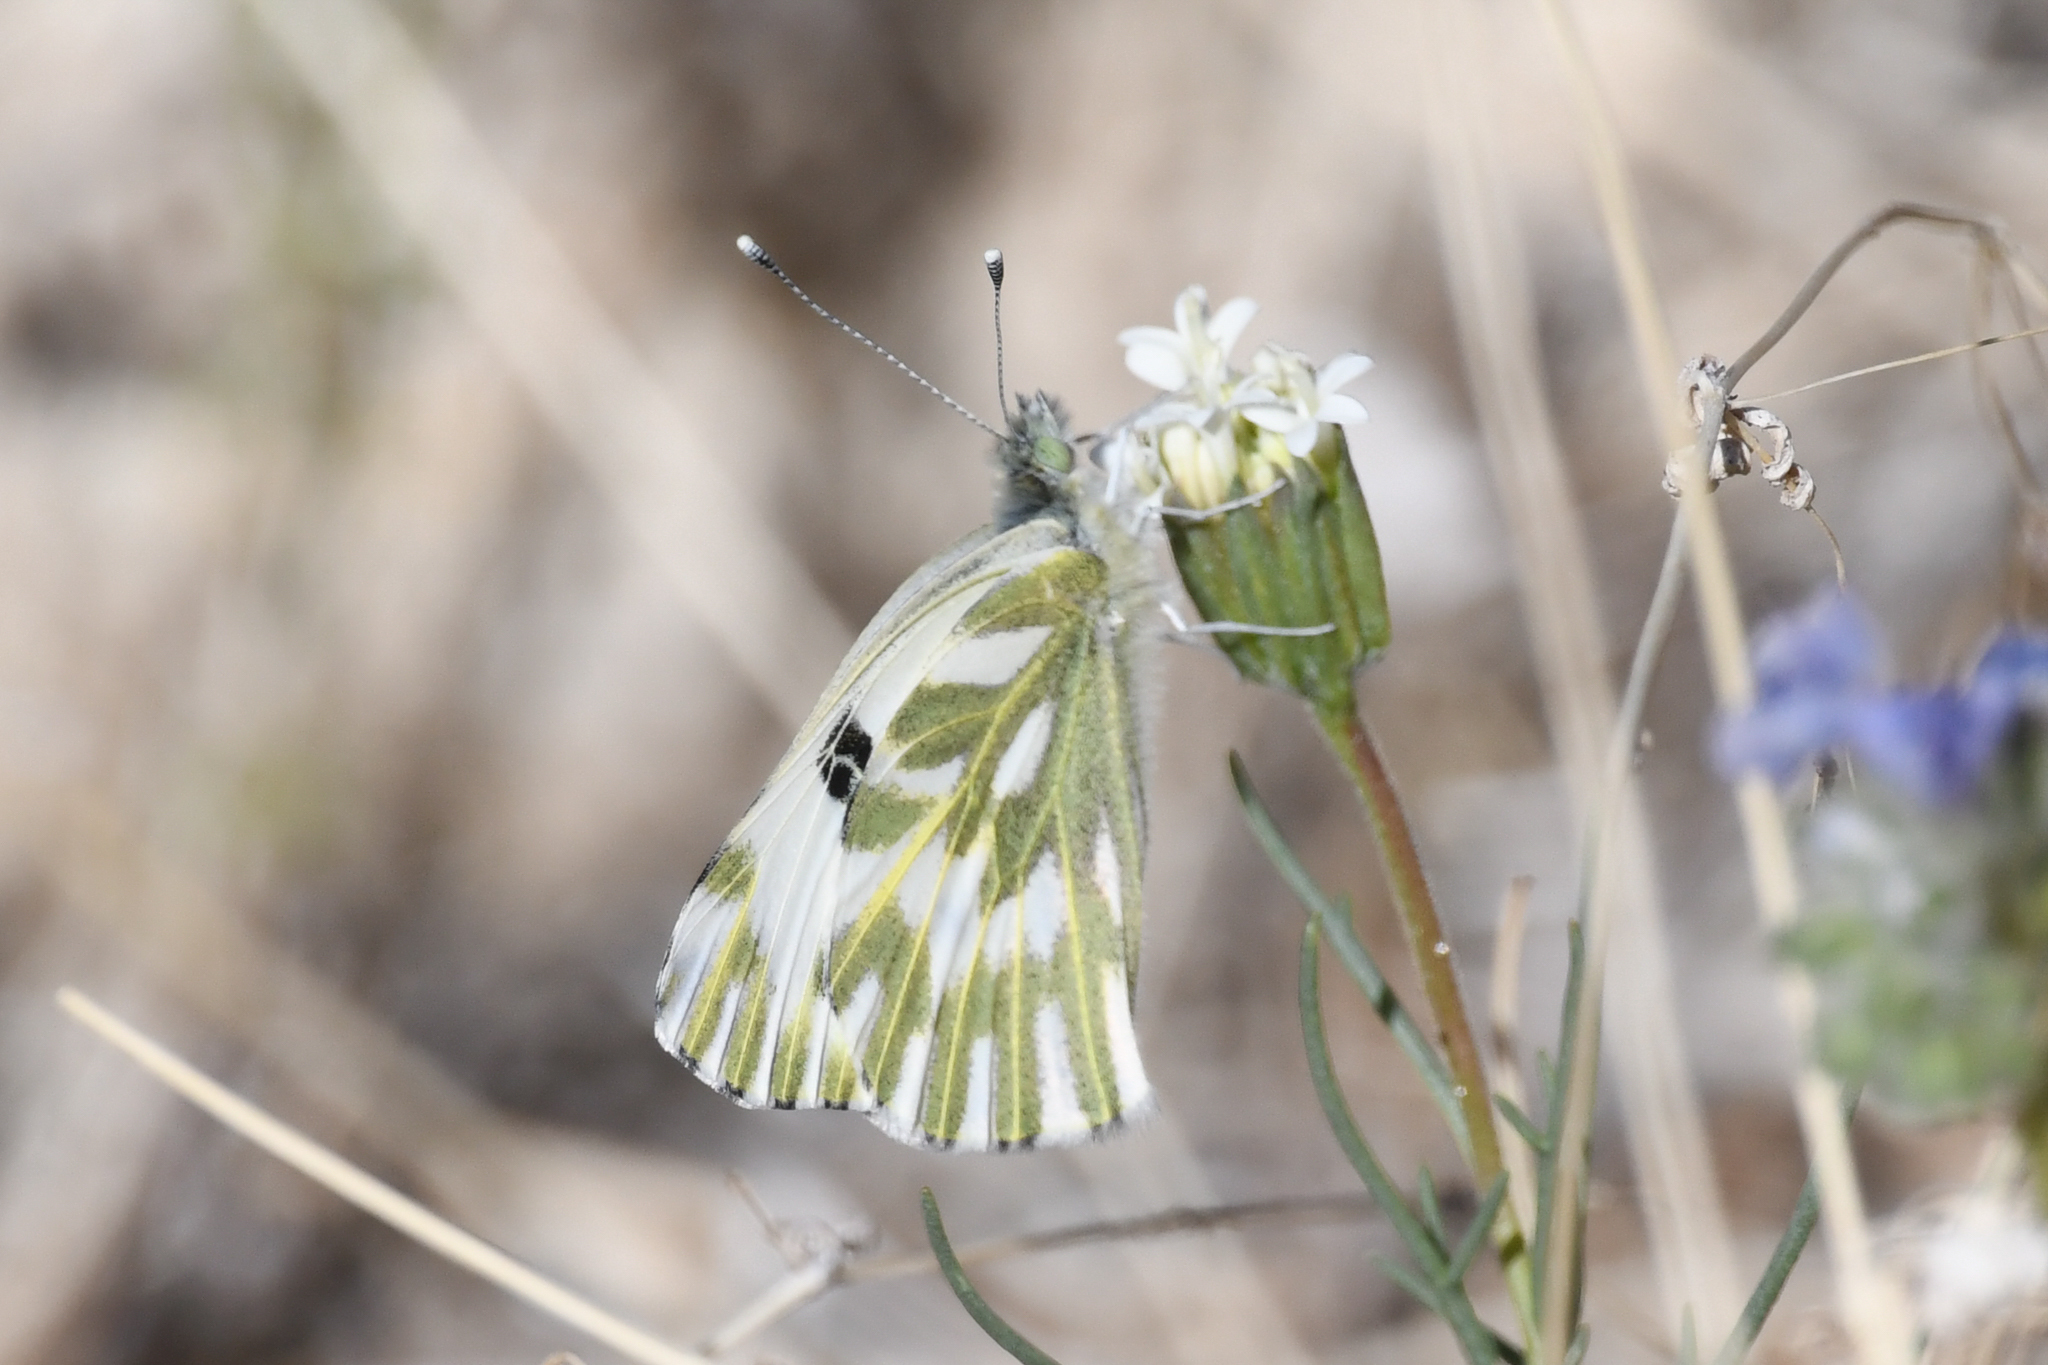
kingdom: Animalia
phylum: Arthropoda
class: Insecta
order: Lepidoptera
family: Pieridae
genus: Pontia
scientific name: Pontia beckerii
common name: Becker's white
